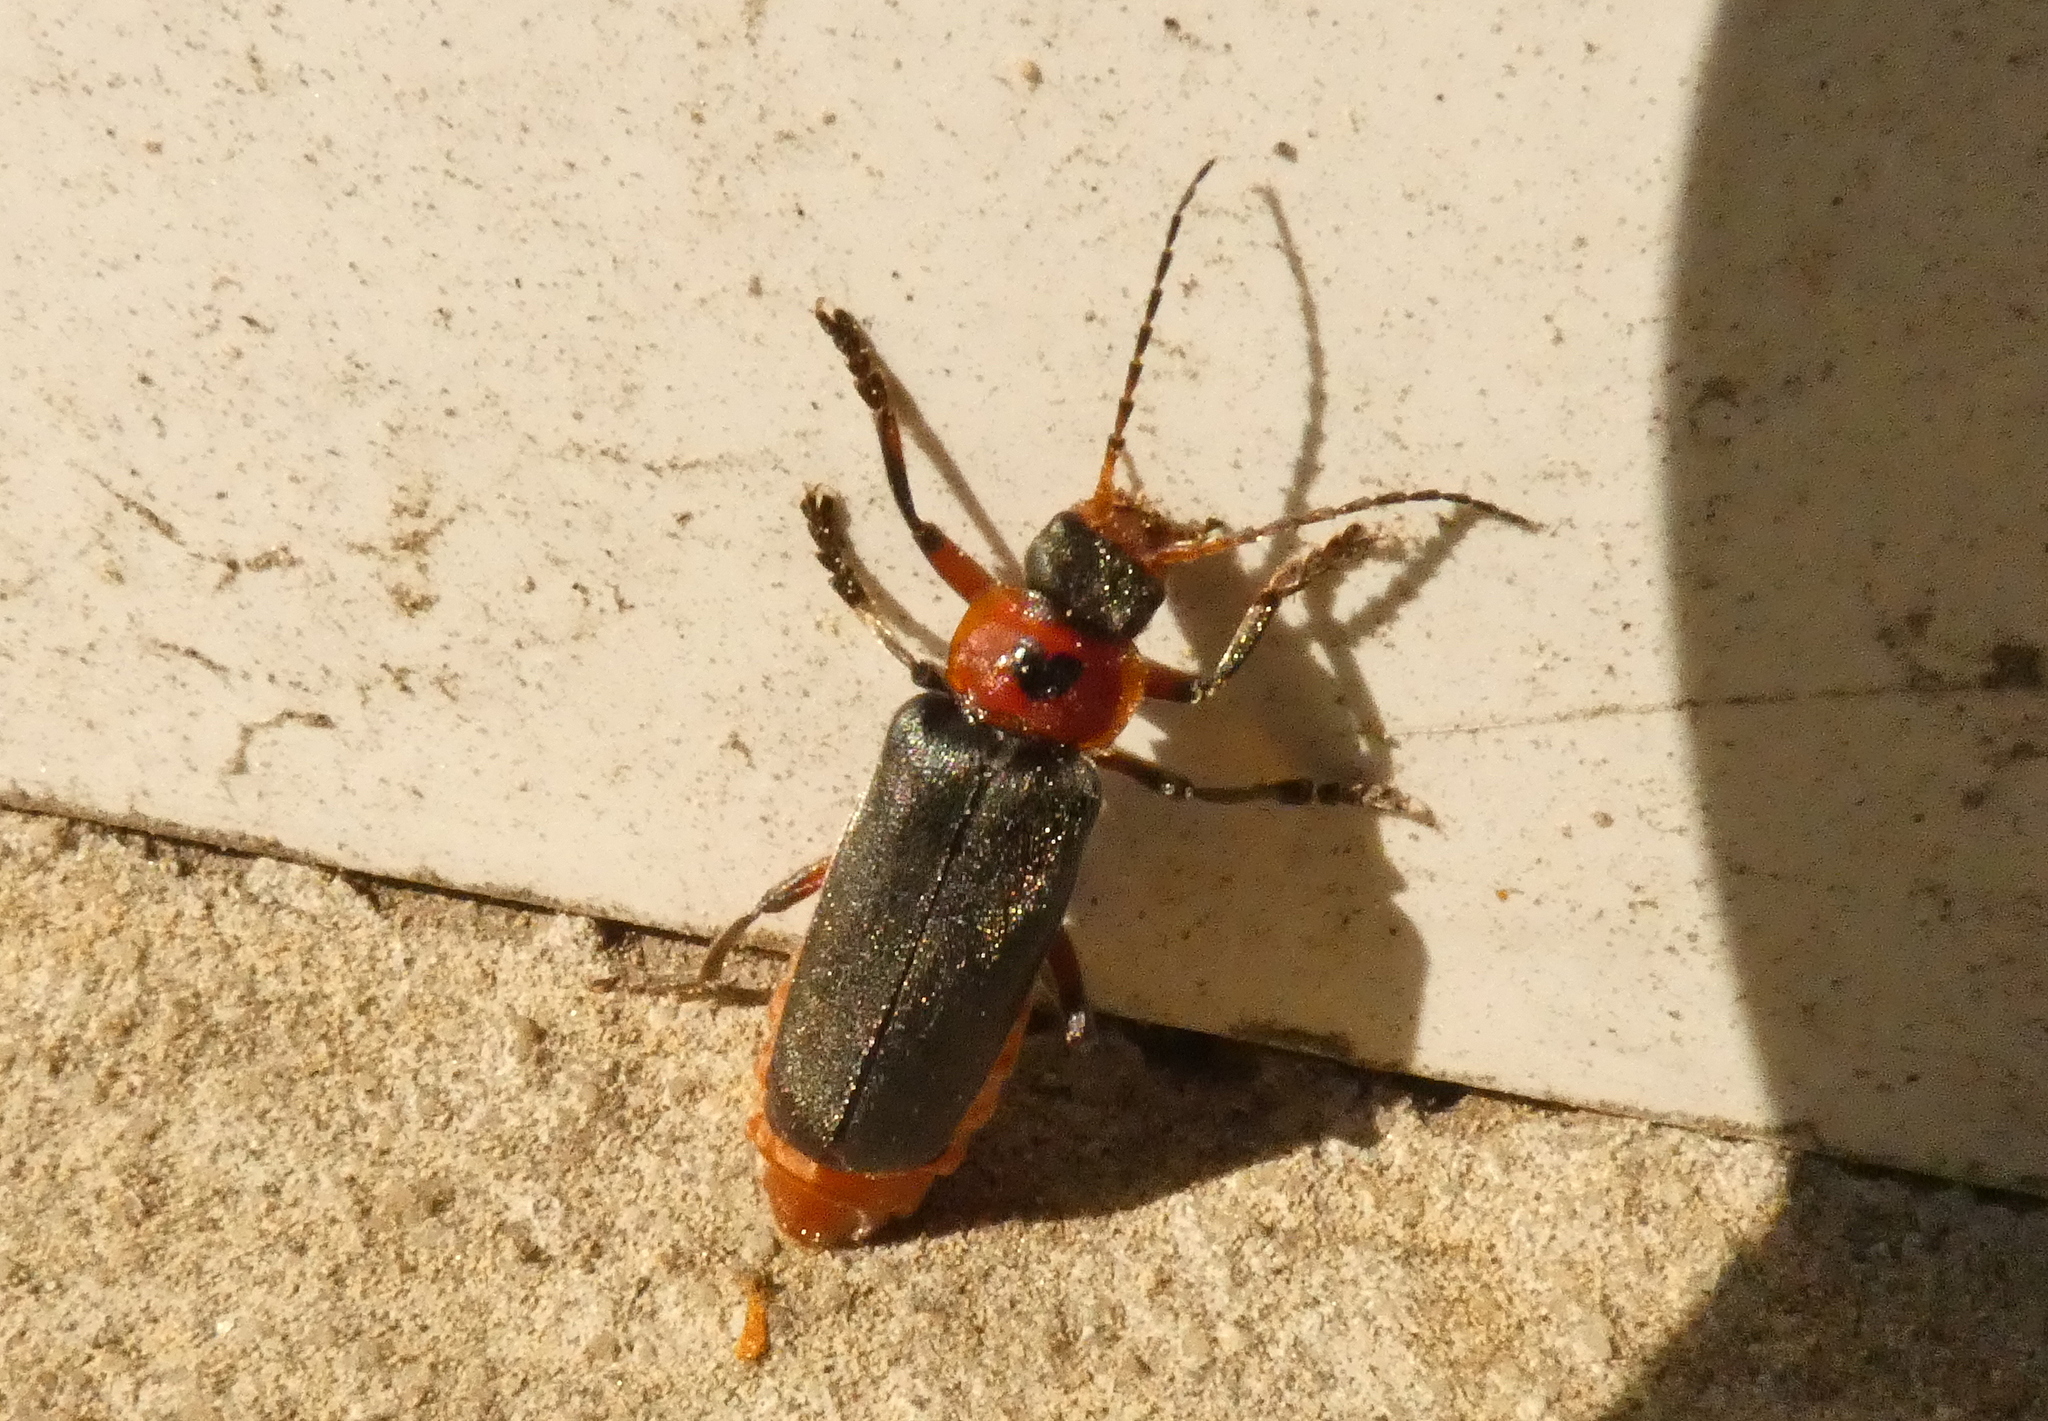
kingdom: Animalia
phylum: Arthropoda
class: Insecta
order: Coleoptera
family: Cantharidae
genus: Cantharis
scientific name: Cantharis rustica
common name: Soldier beetle
